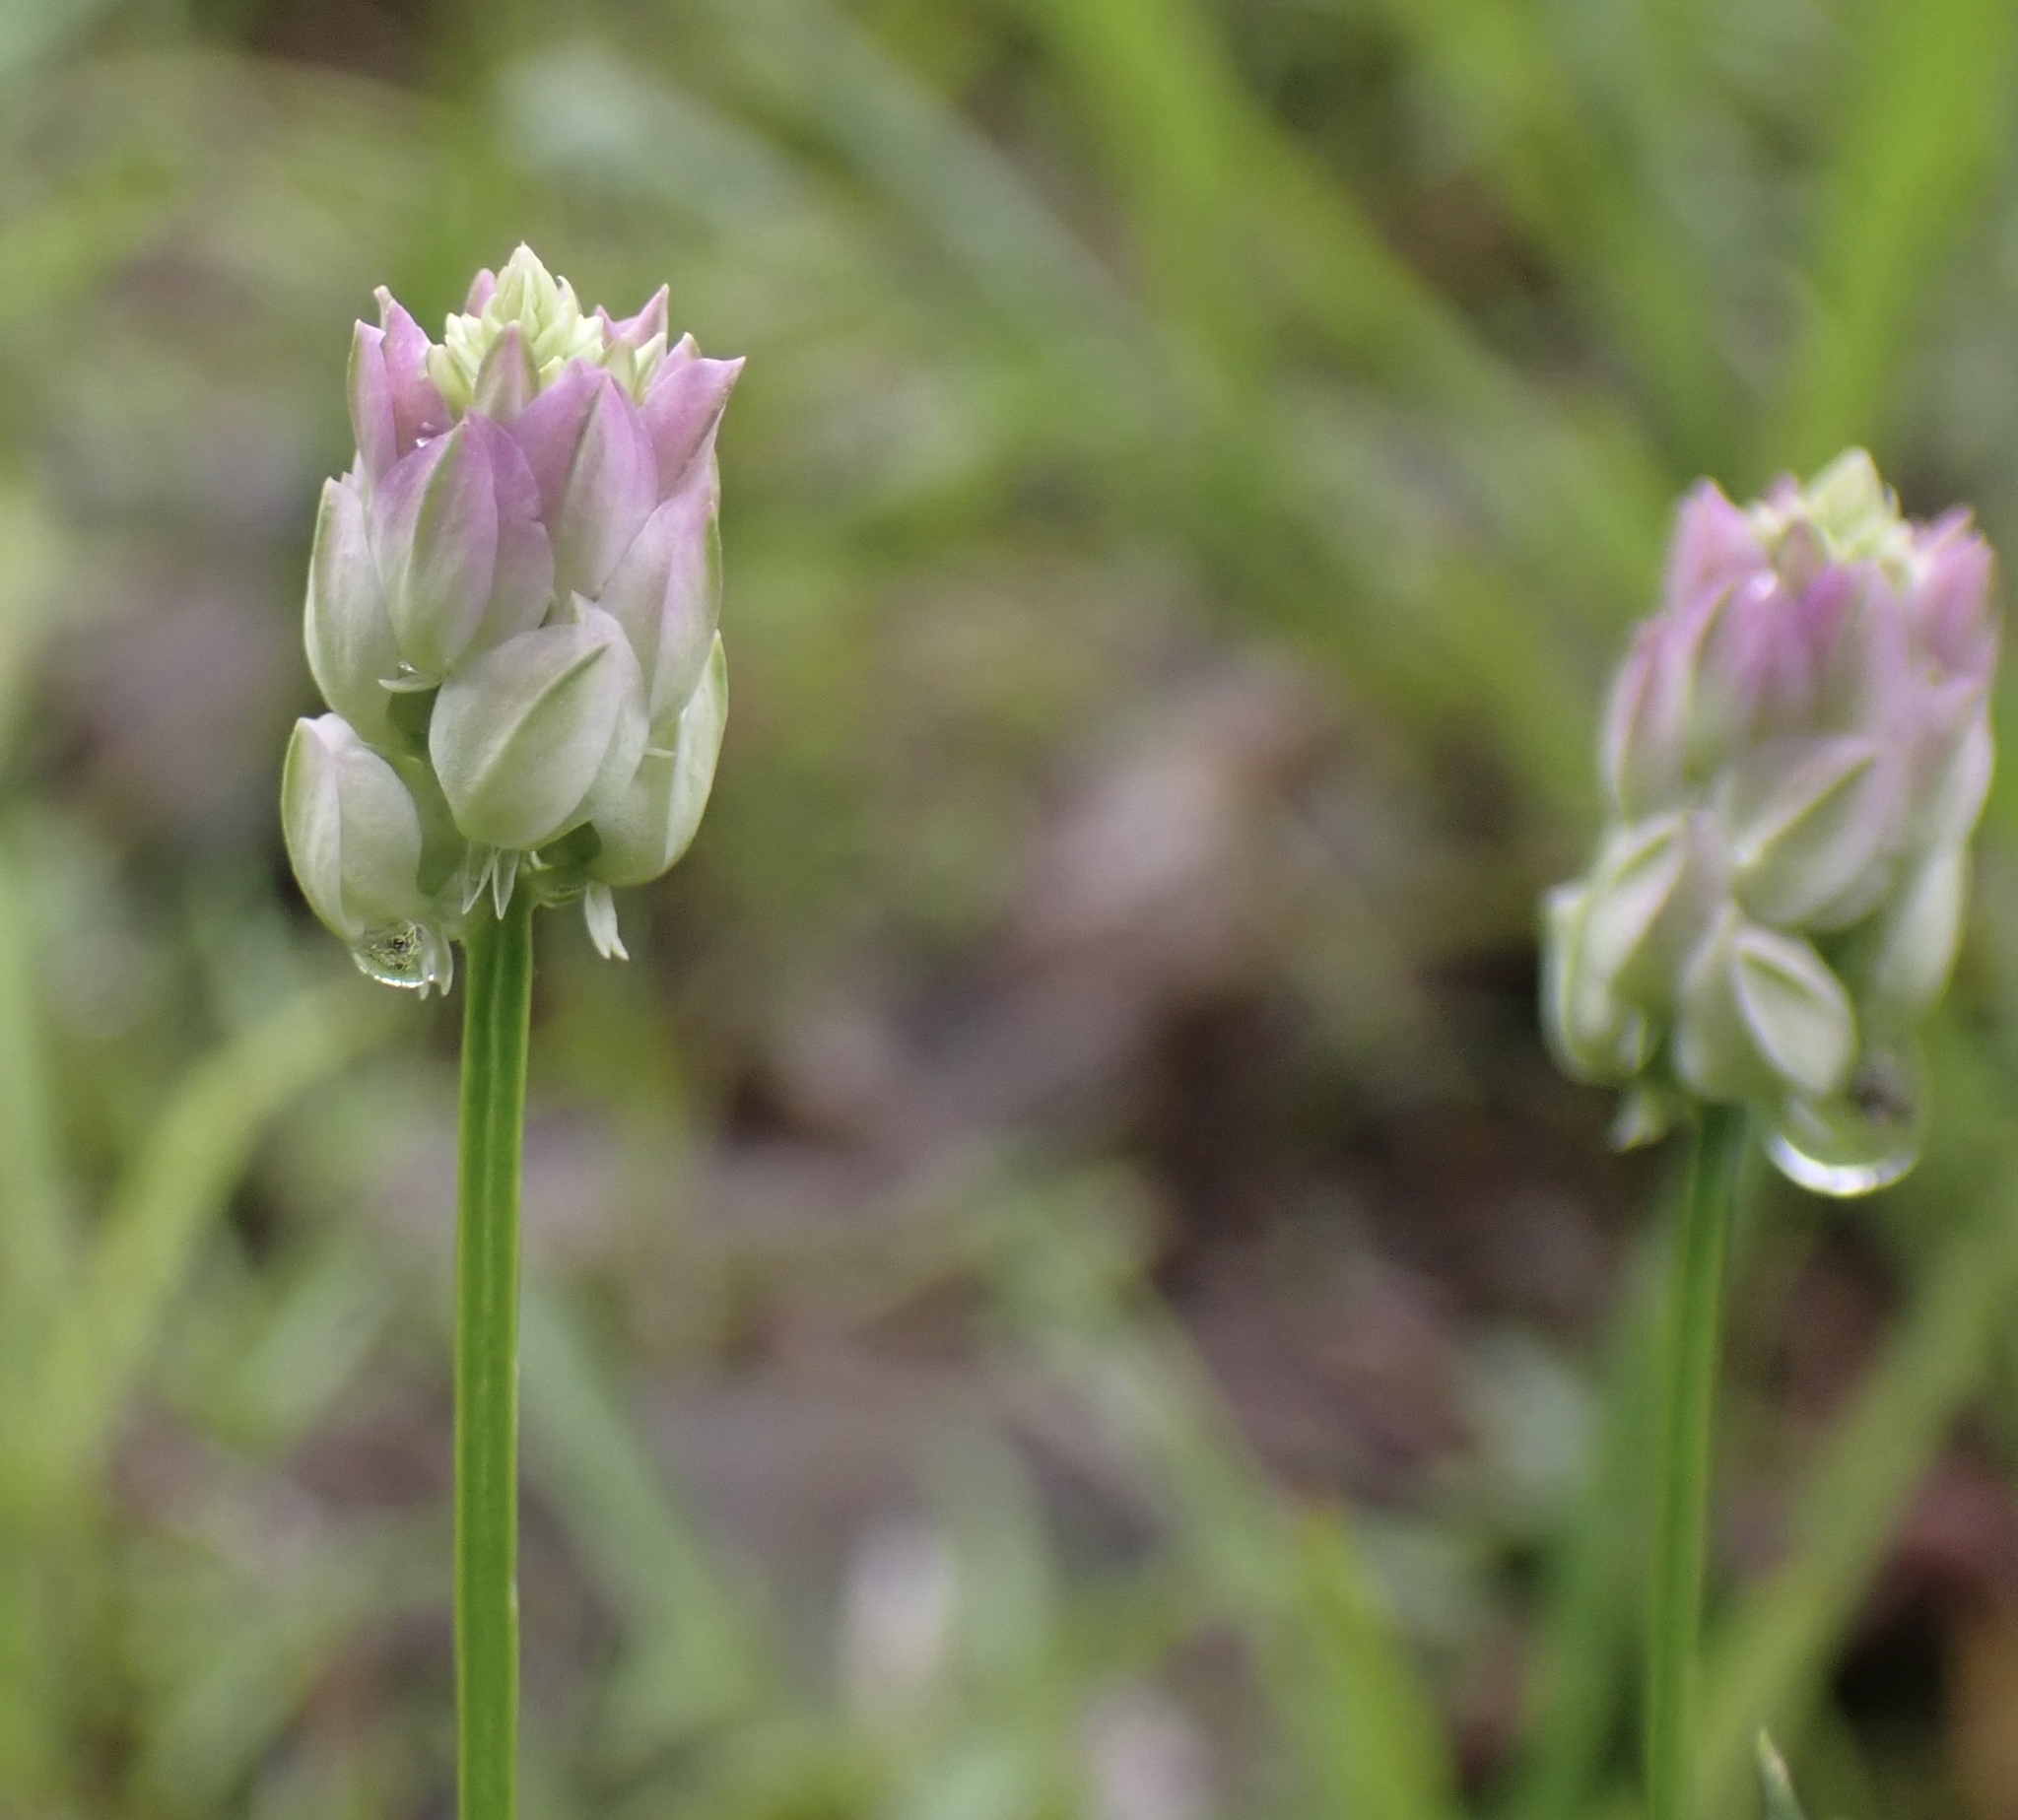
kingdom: Plantae
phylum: Tracheophyta
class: Magnoliopsida
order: Fabales
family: Polygalaceae
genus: Polygala
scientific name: Polygala sanguinea
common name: Blood milkwort
